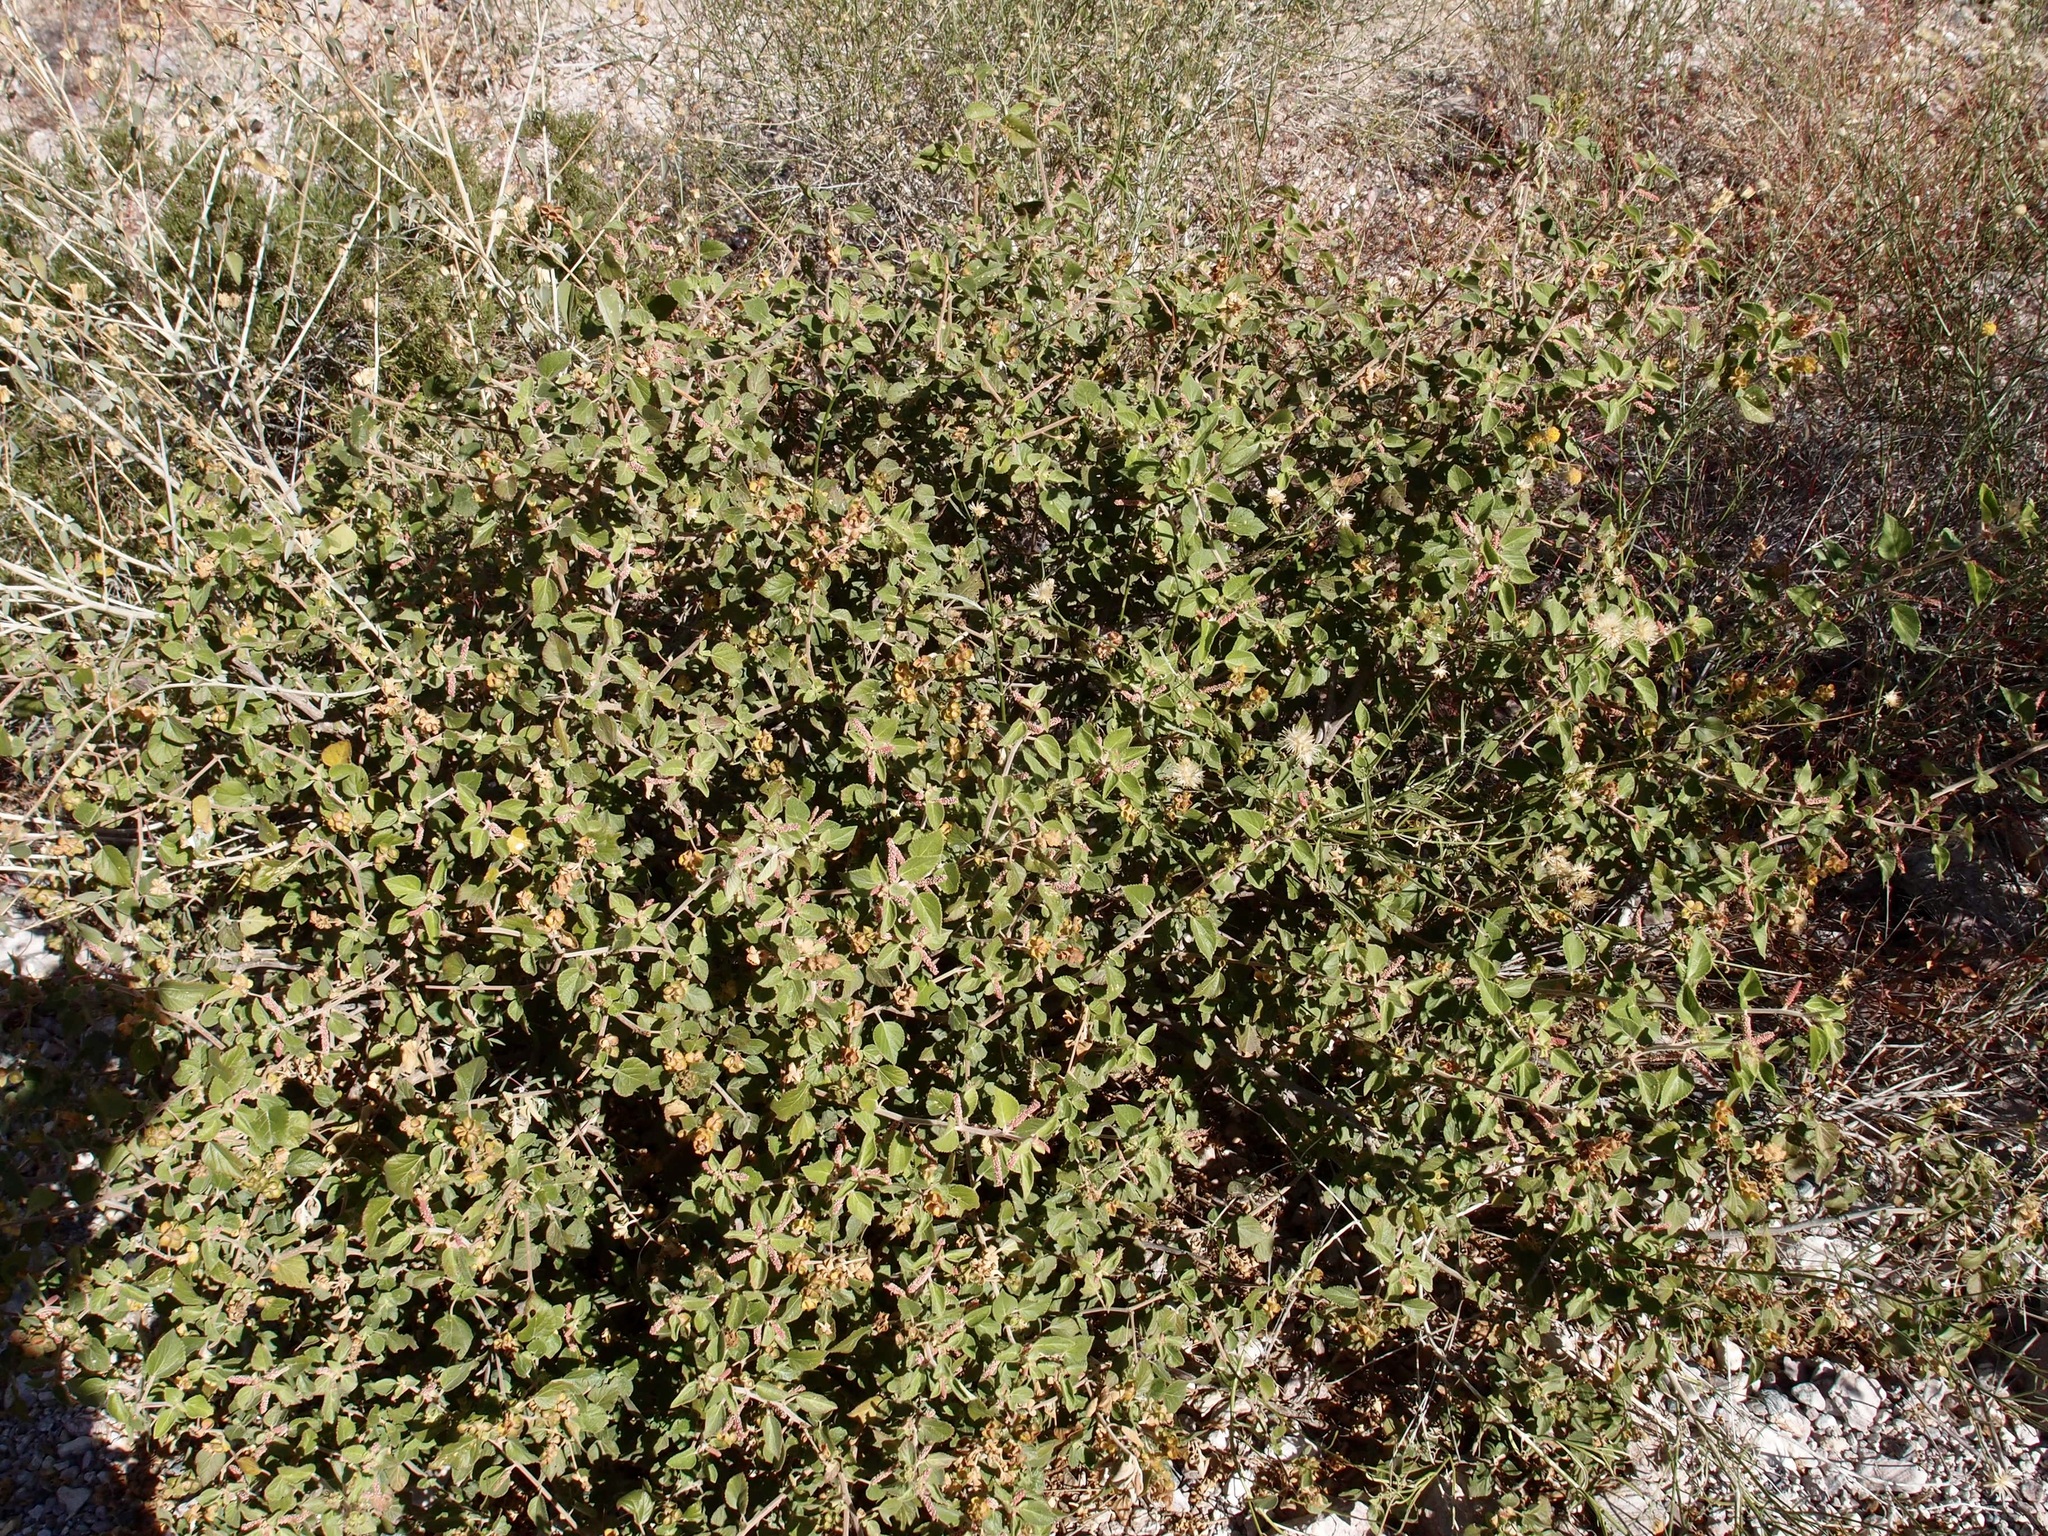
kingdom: Plantae
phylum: Tracheophyta
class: Magnoliopsida
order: Malpighiales
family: Euphorbiaceae
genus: Acalypha
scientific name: Acalypha californica
